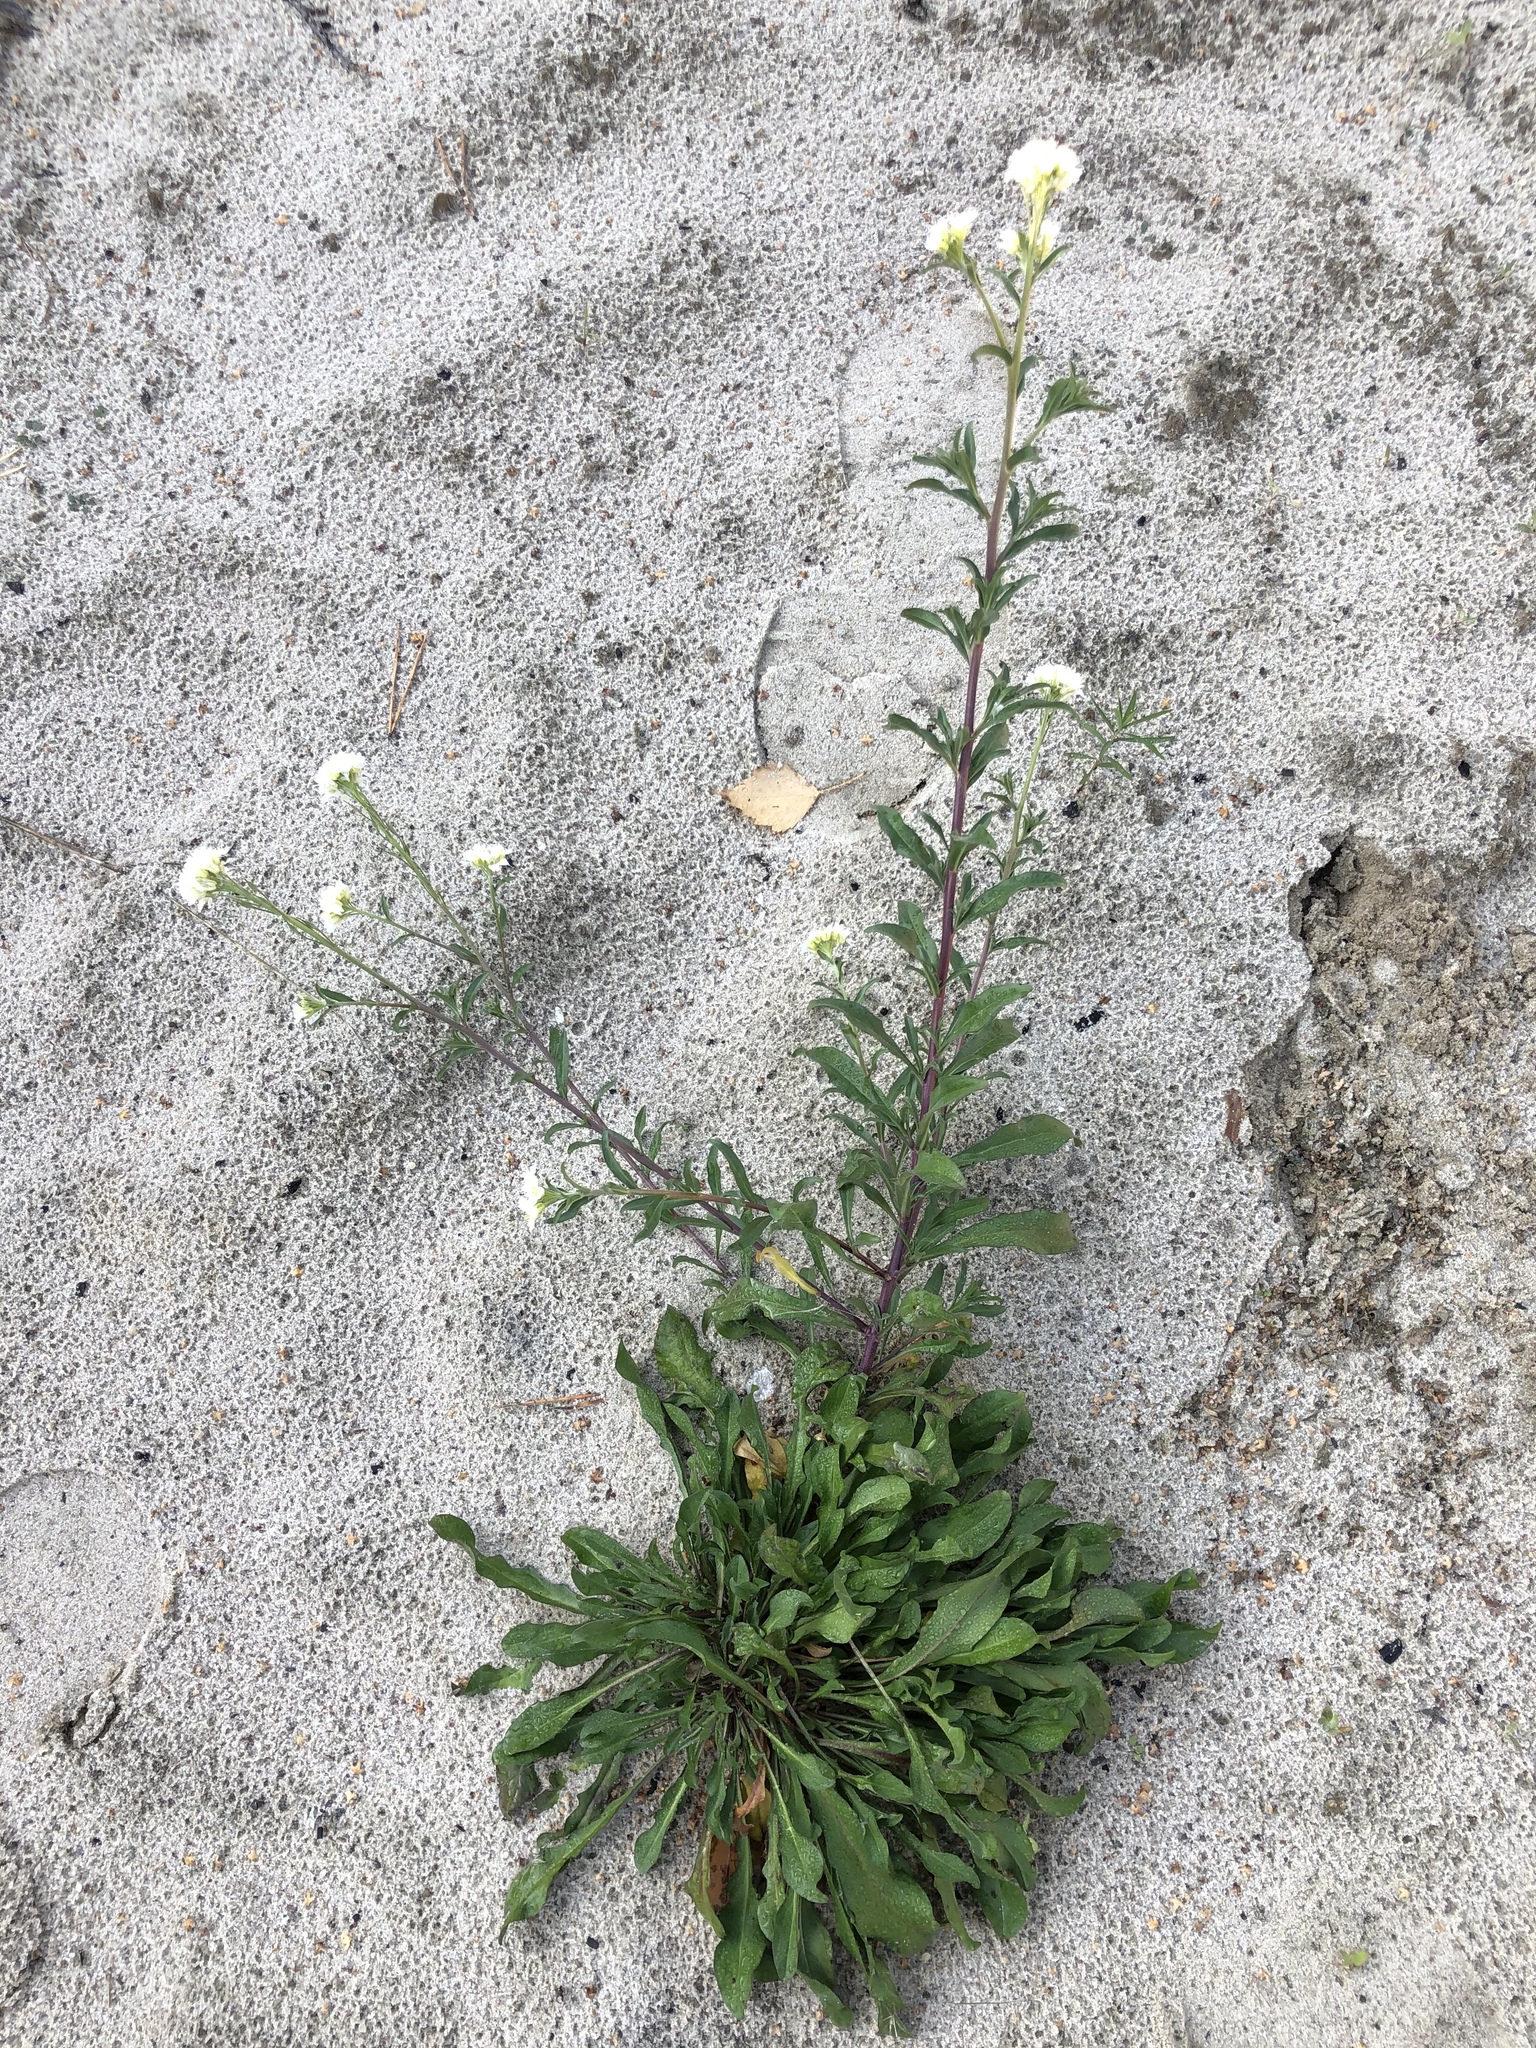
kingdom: Plantae
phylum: Tracheophyta
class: Magnoliopsida
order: Brassicales
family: Brassicaceae
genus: Berteroa
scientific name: Berteroa incana
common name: Hoary alison
